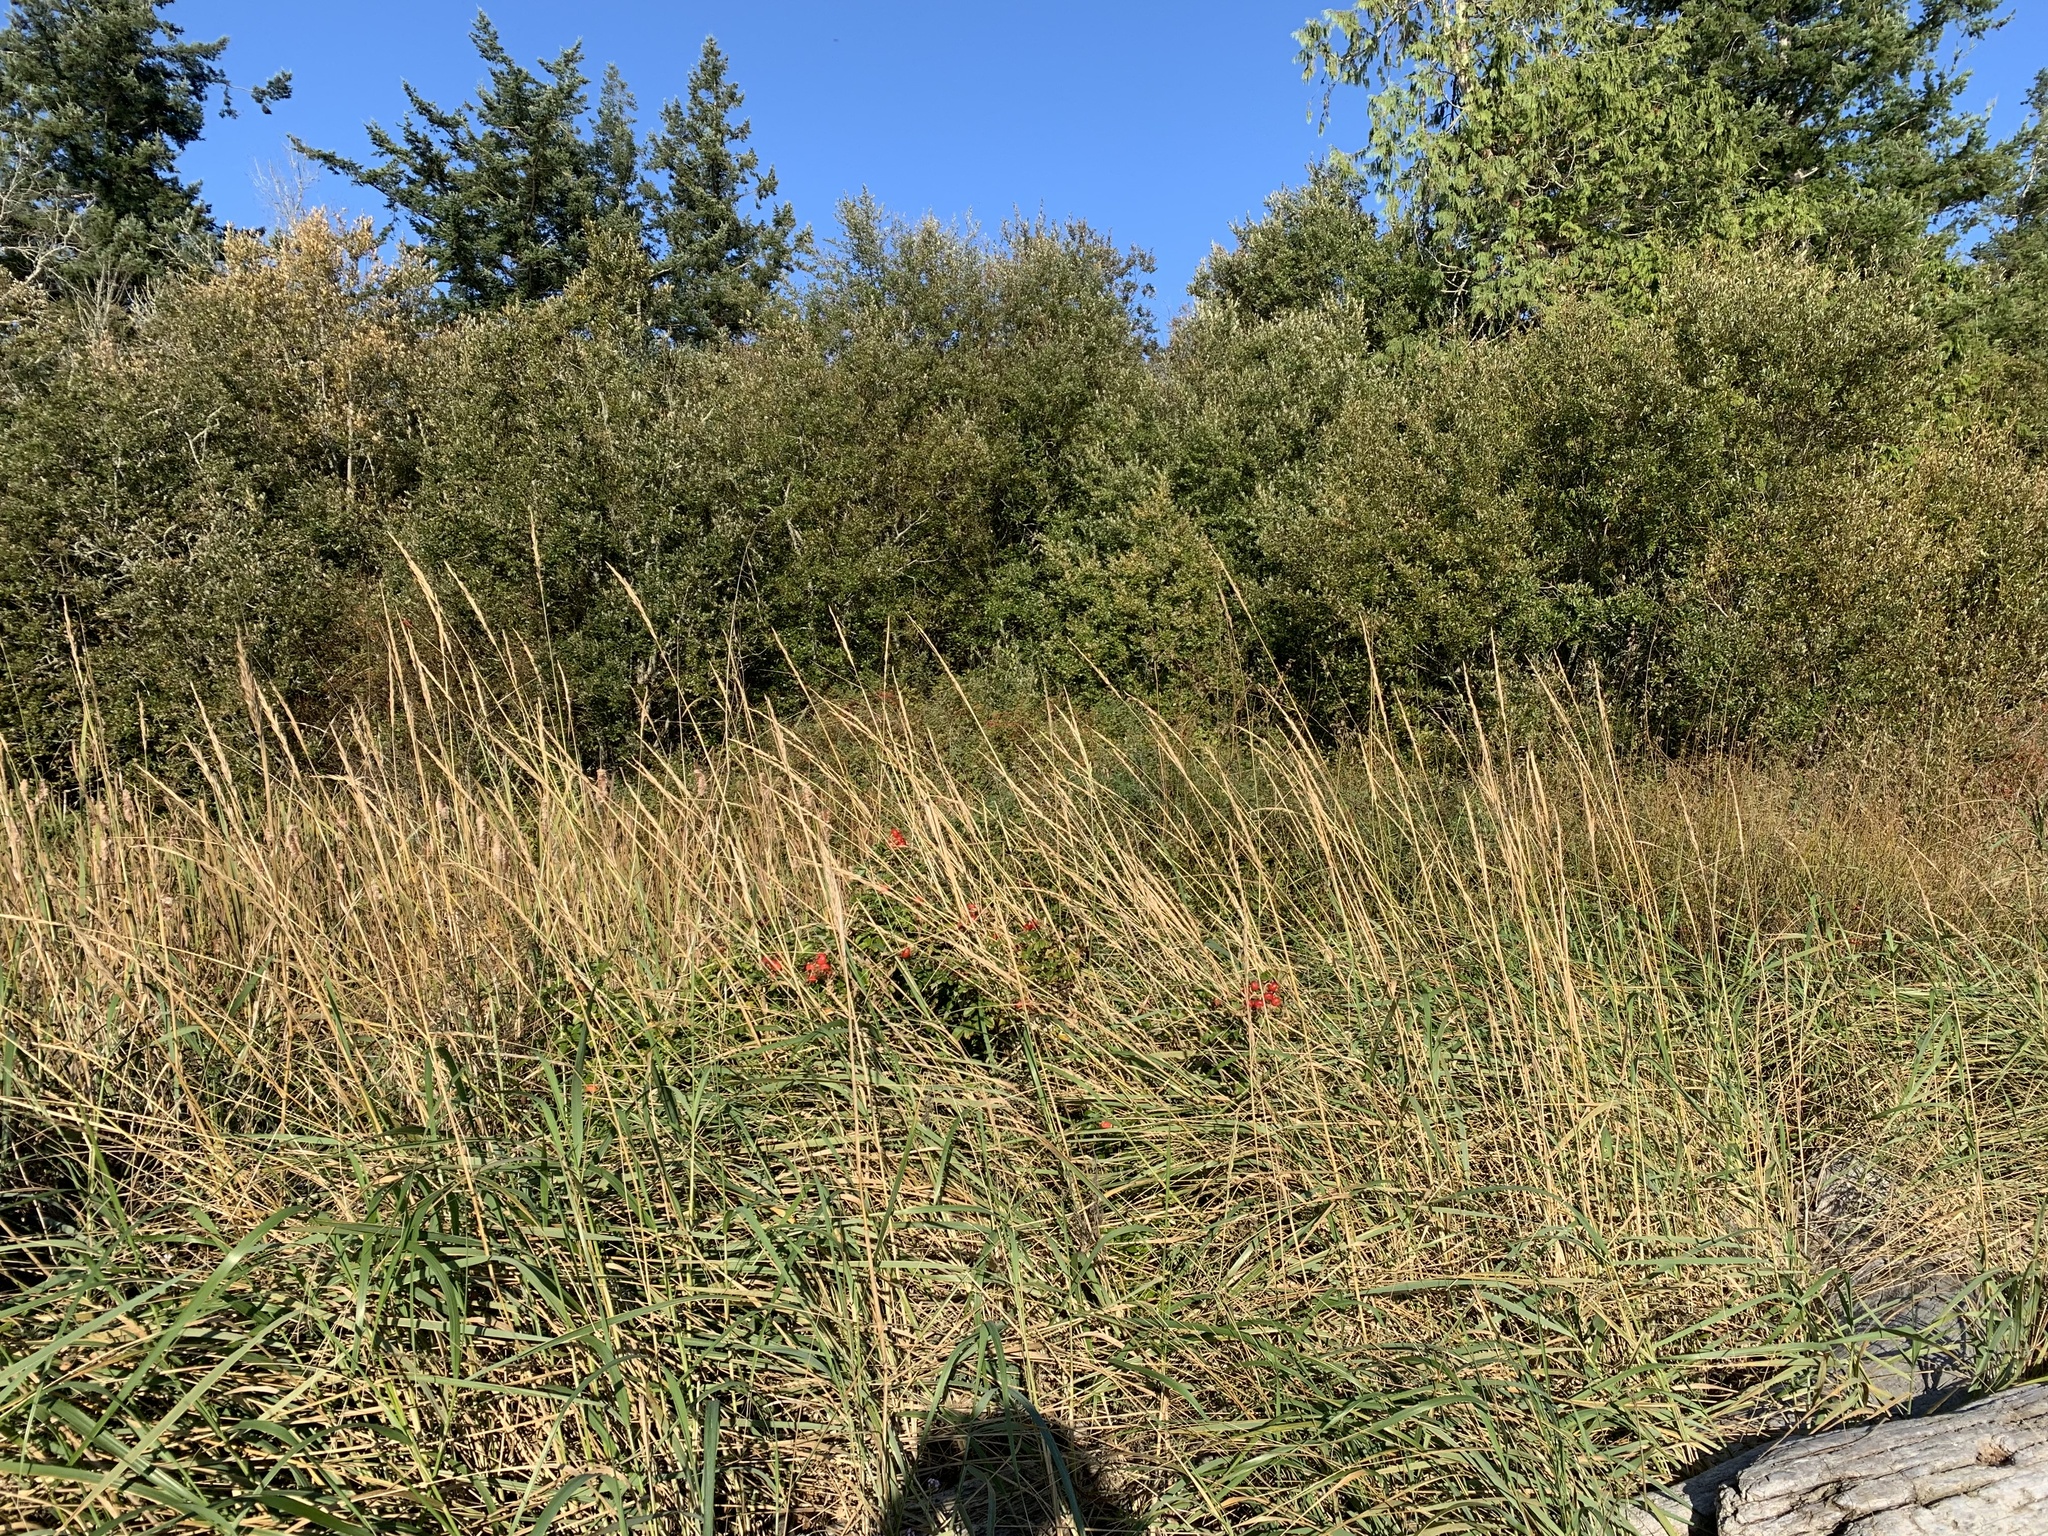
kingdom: Plantae
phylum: Tracheophyta
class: Magnoliopsida
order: Rosales
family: Rosaceae
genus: Rosa
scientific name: Rosa rugosa
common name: Japanese rose
